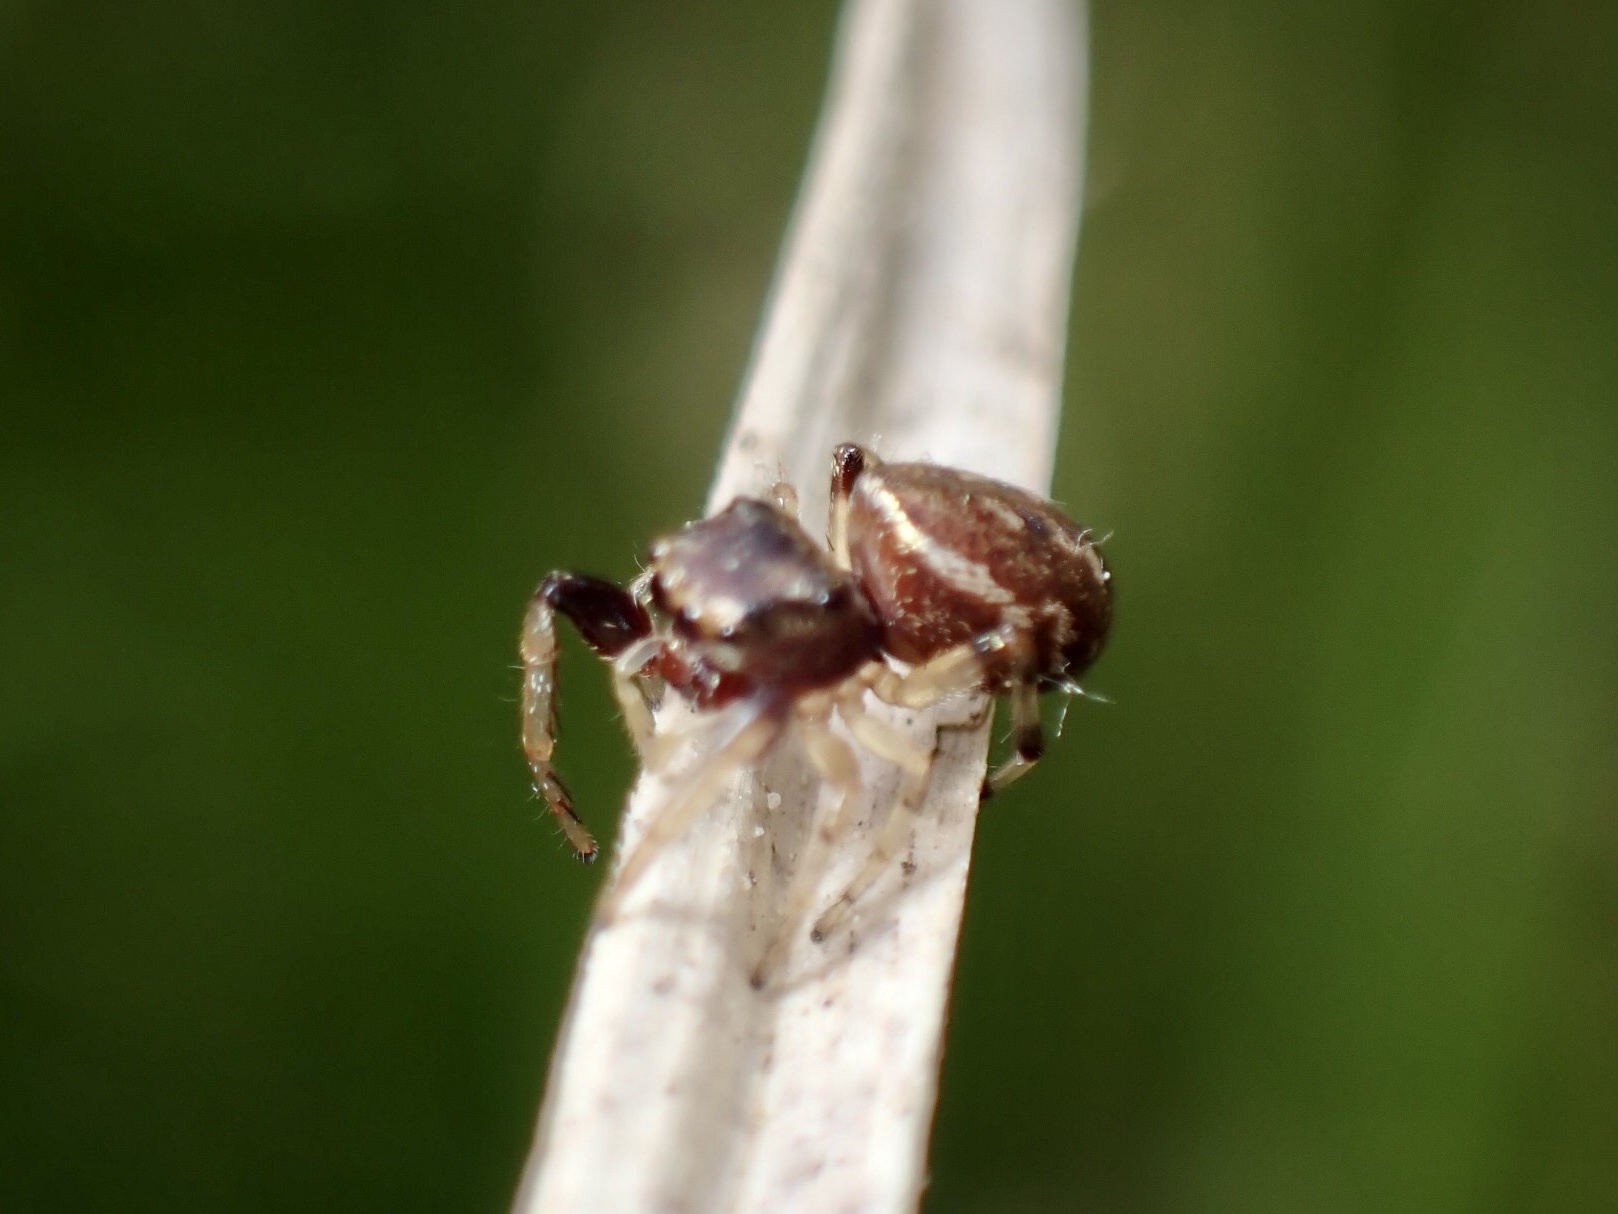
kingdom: Animalia
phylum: Arthropoda
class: Arachnida
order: Araneae
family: Salticidae
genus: Zygoballus
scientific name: Zygoballus rufipes
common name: Jumping spiders
